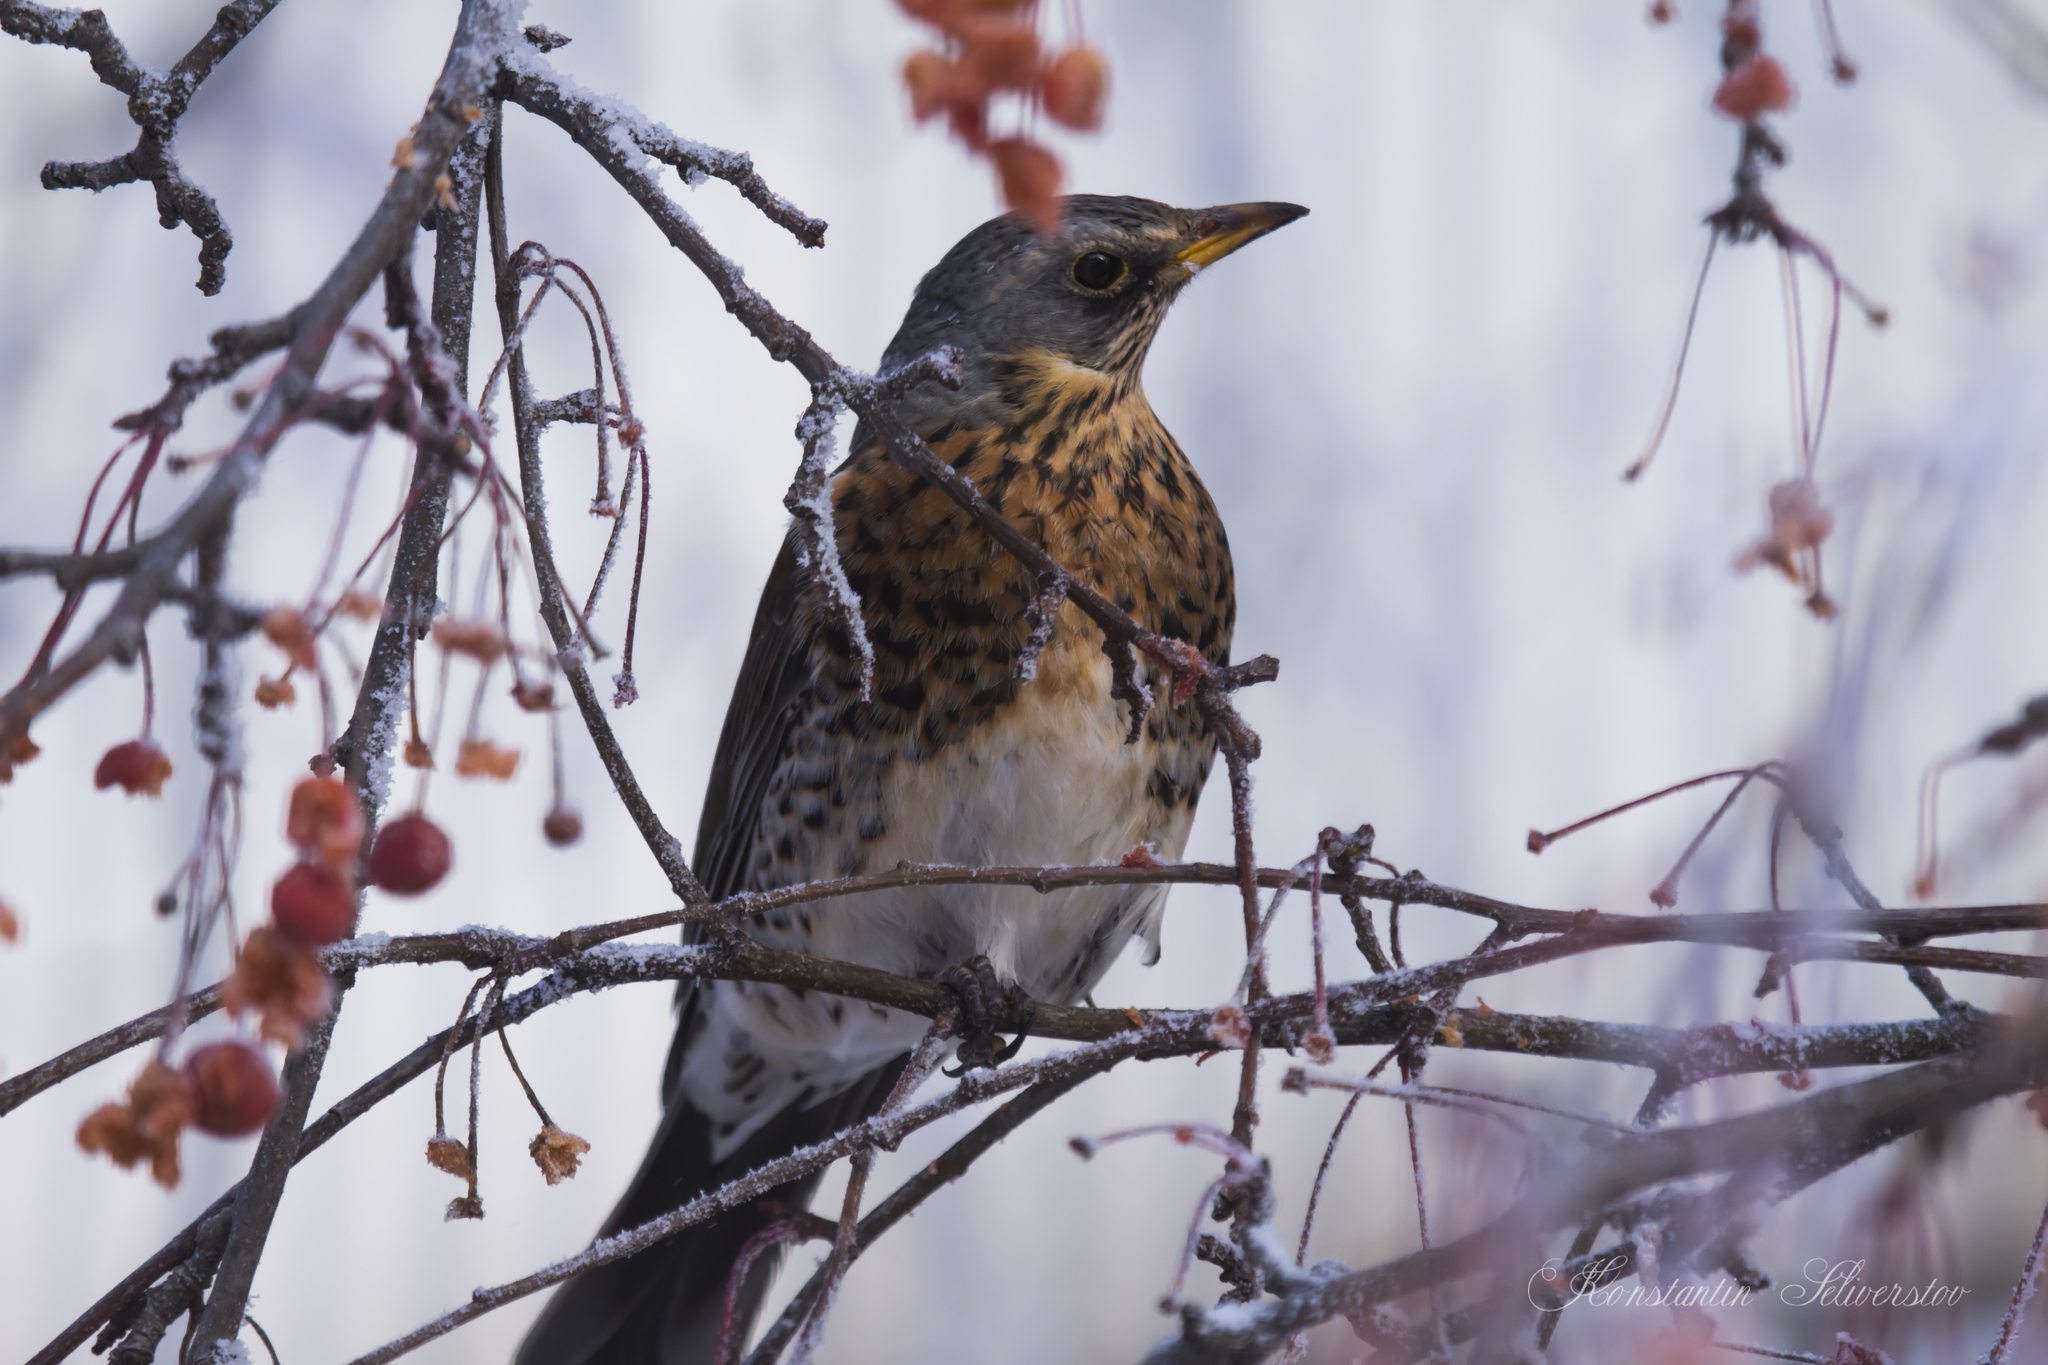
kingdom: Animalia
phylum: Chordata
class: Aves
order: Passeriformes
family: Turdidae
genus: Turdus
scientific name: Turdus pilaris
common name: Fieldfare
